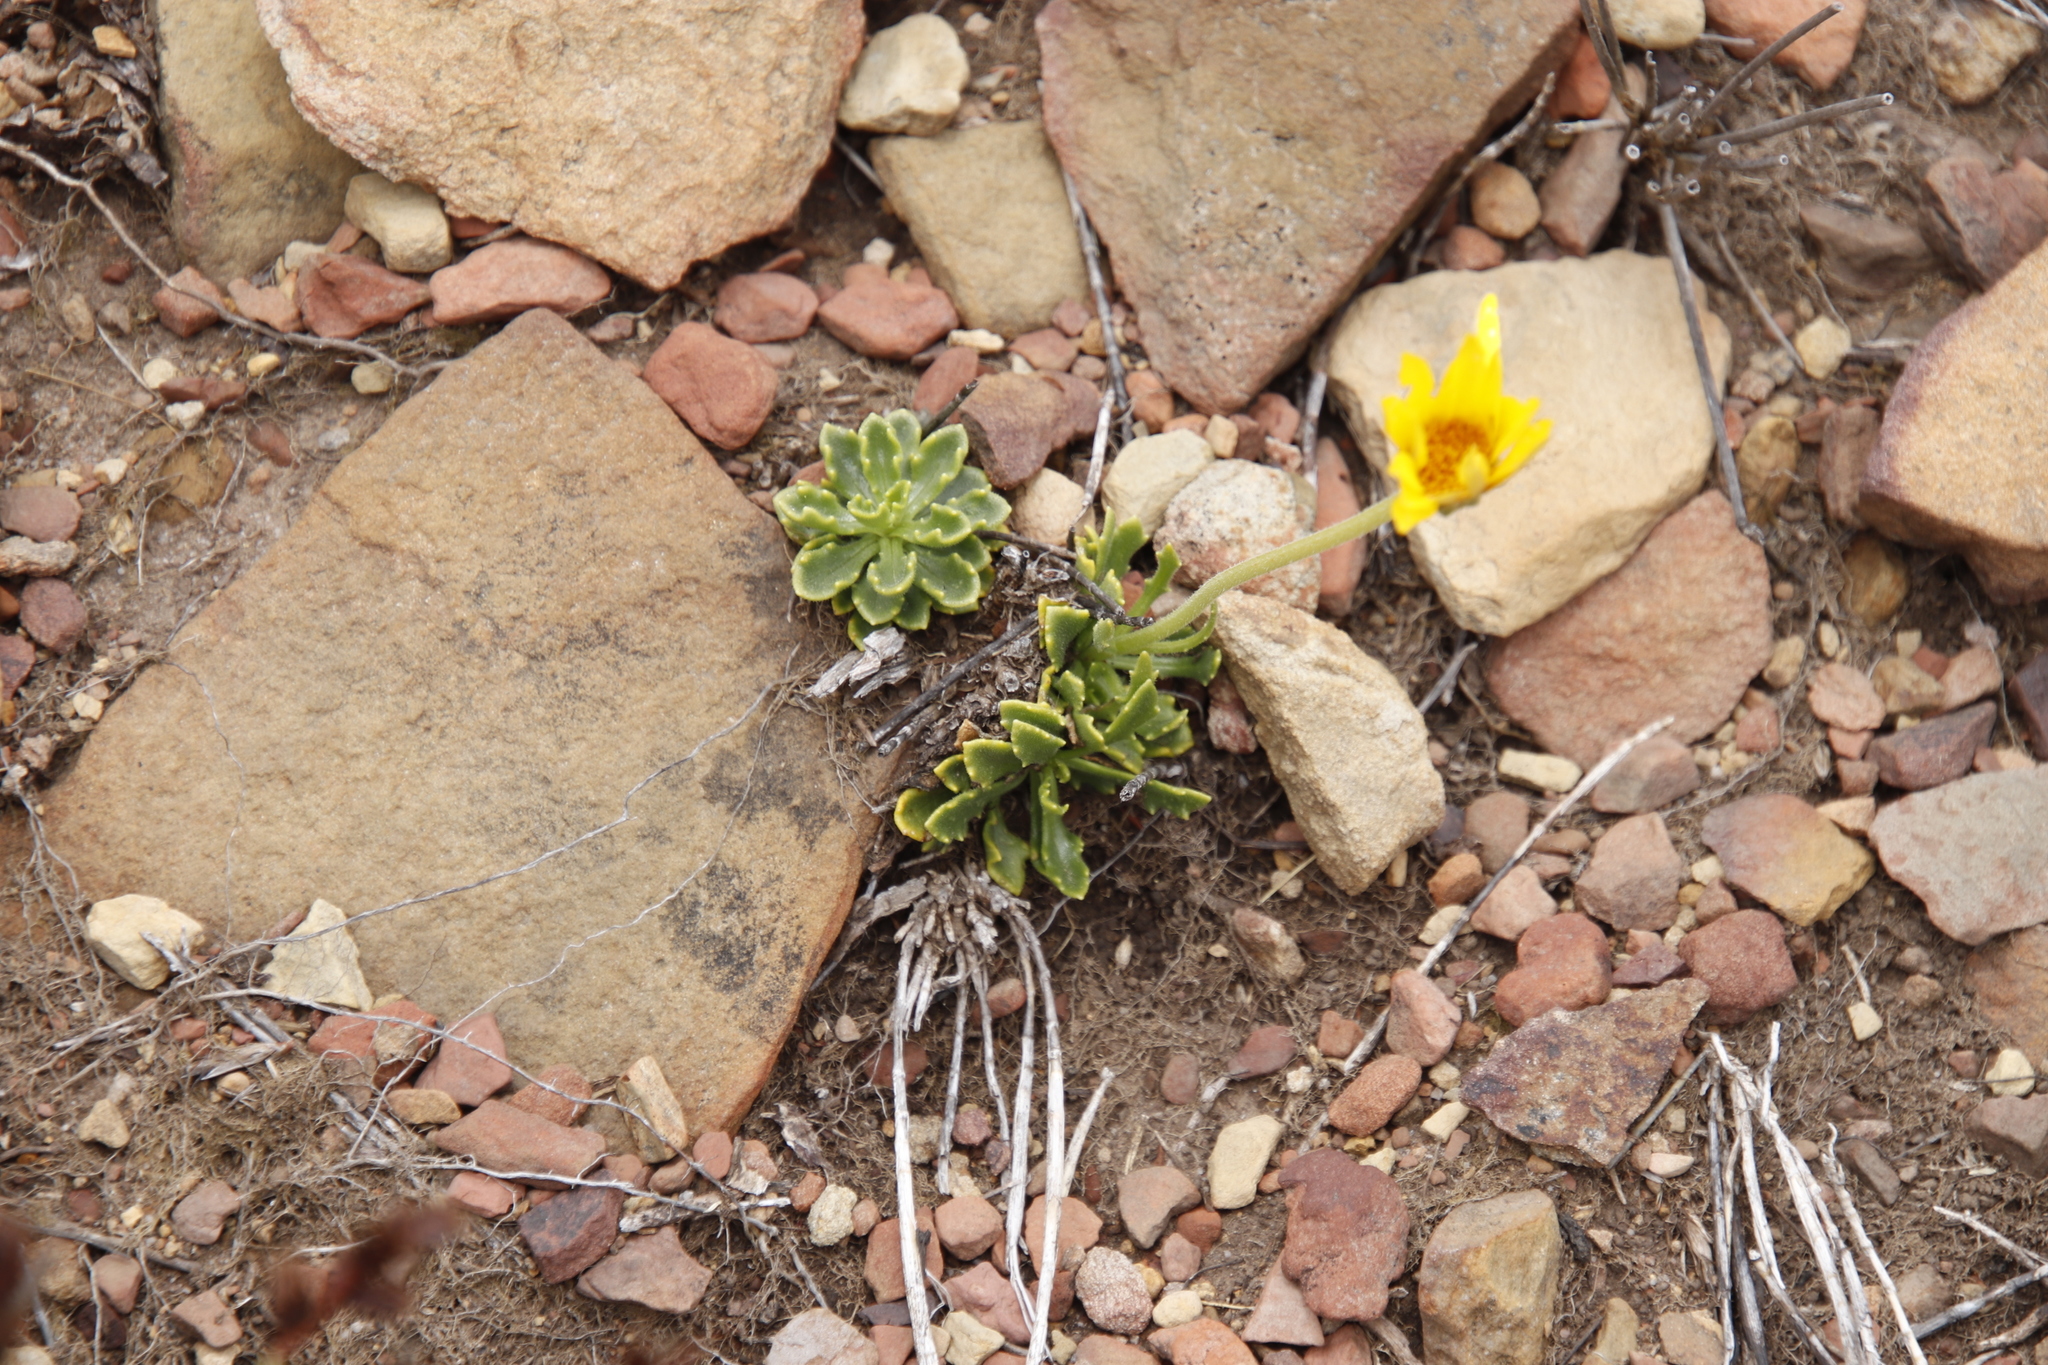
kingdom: Plantae
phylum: Tracheophyta
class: Magnoliopsida
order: Asterales
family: Asteraceae
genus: Dimorphotheca
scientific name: Dimorphotheca montana
